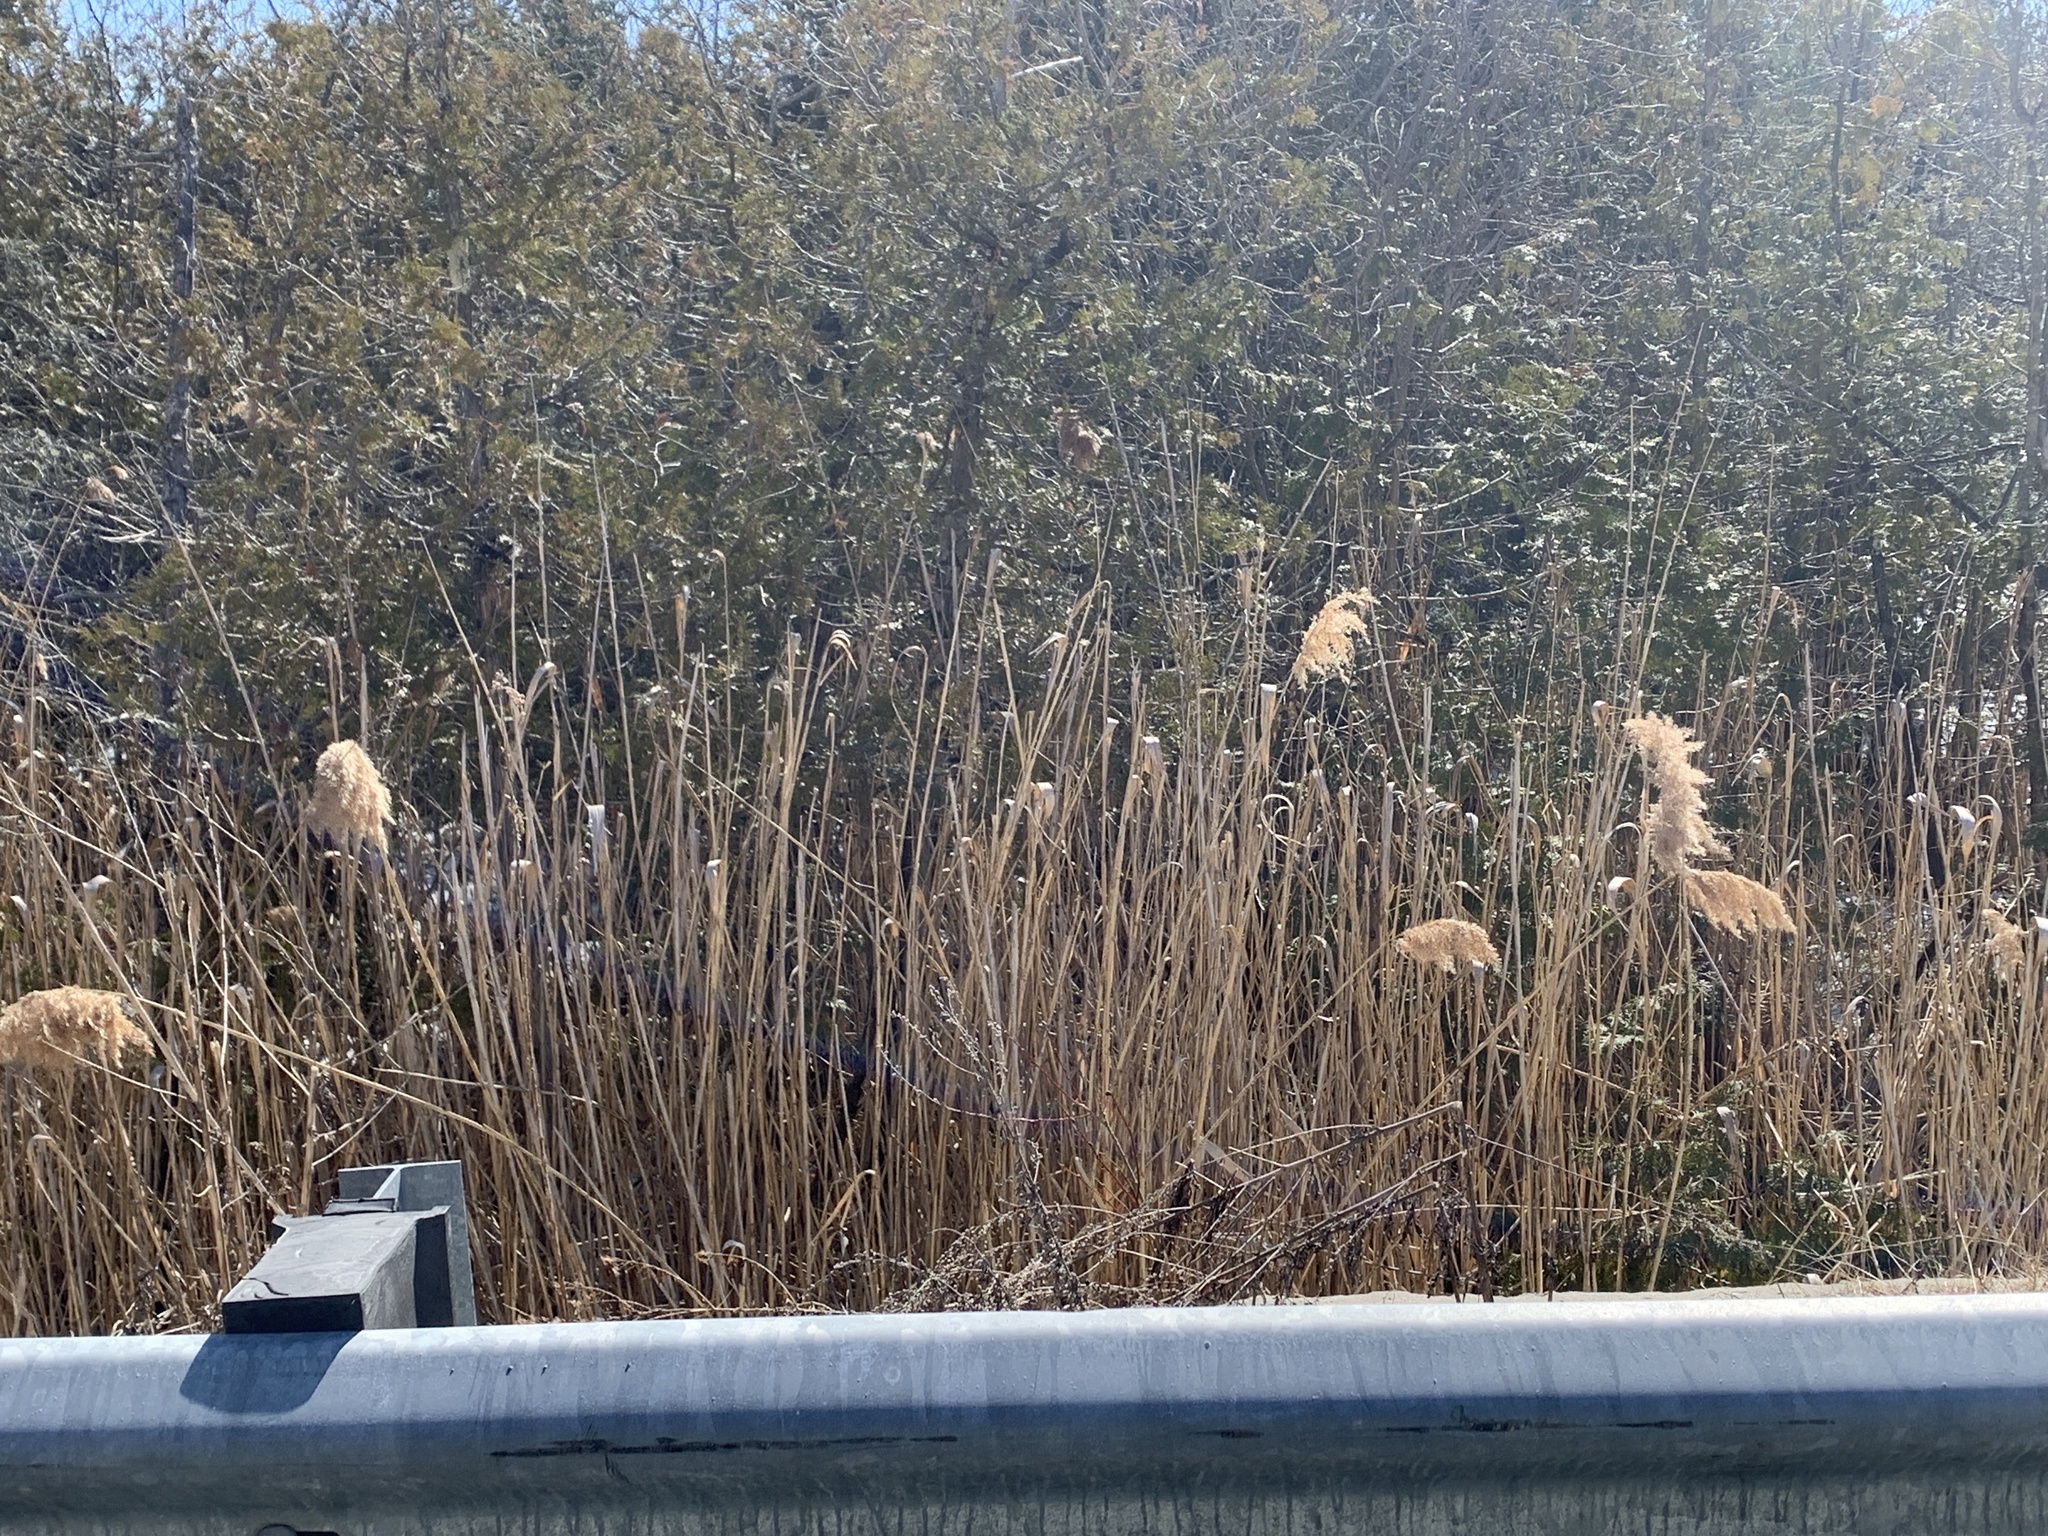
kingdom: Plantae
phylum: Tracheophyta
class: Liliopsida
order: Poales
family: Poaceae
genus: Phragmites
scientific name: Phragmites australis
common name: Common reed
